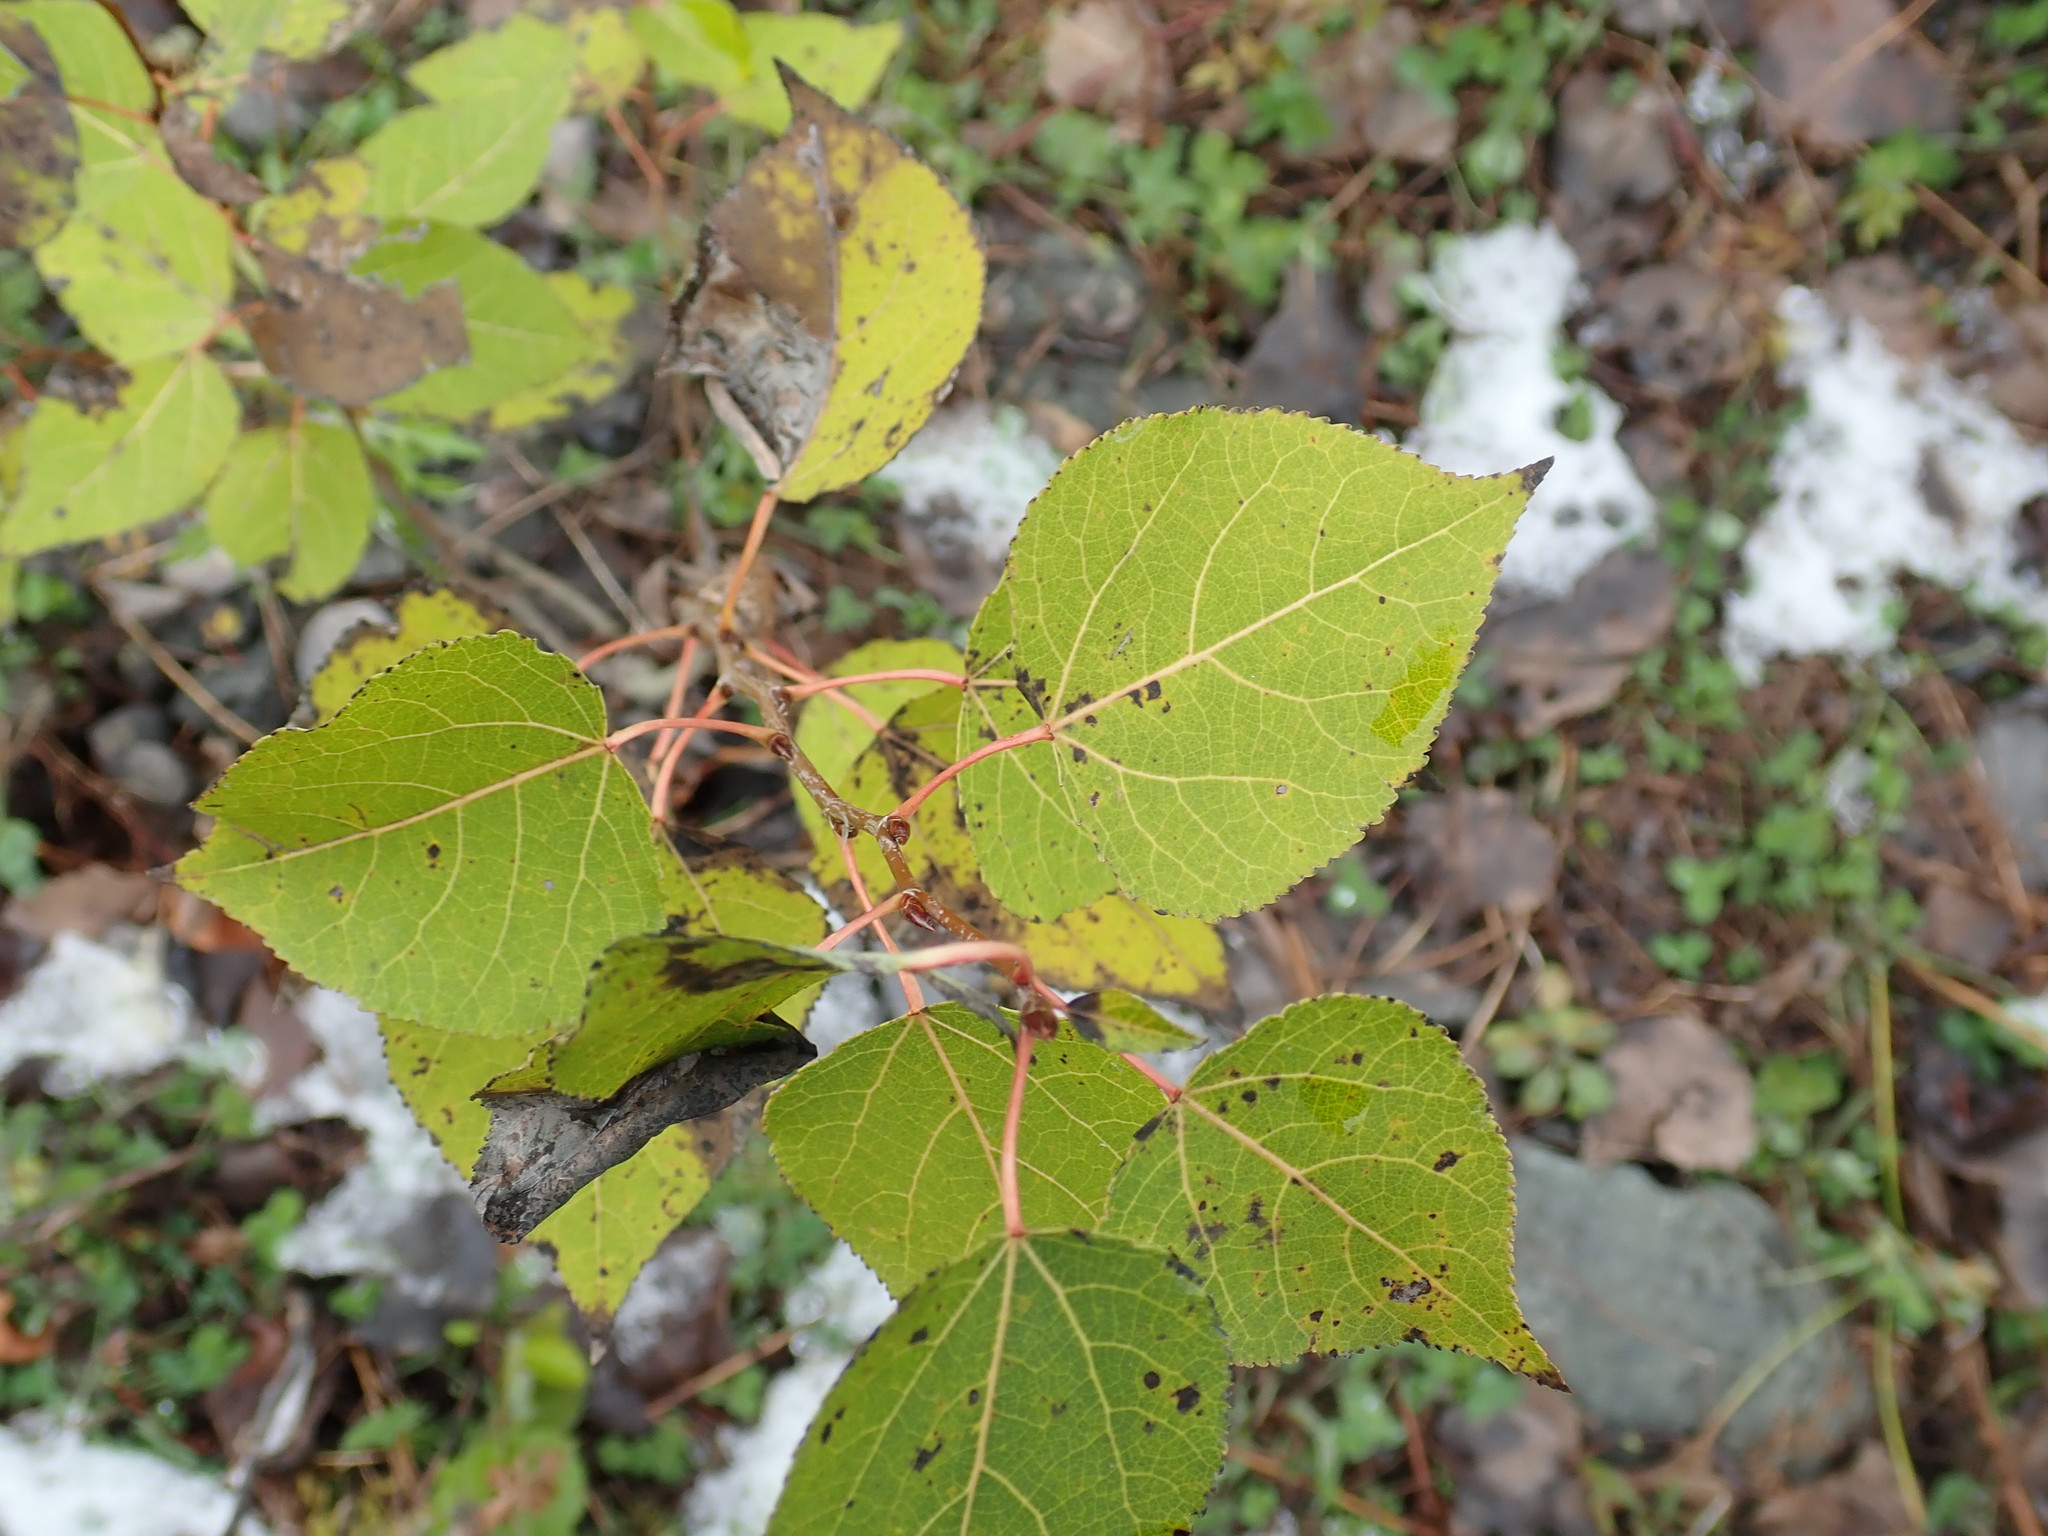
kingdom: Plantae
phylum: Tracheophyta
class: Magnoliopsida
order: Malpighiales
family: Salicaceae
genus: Populus
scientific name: Populus tremuloides
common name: Quaking aspen
